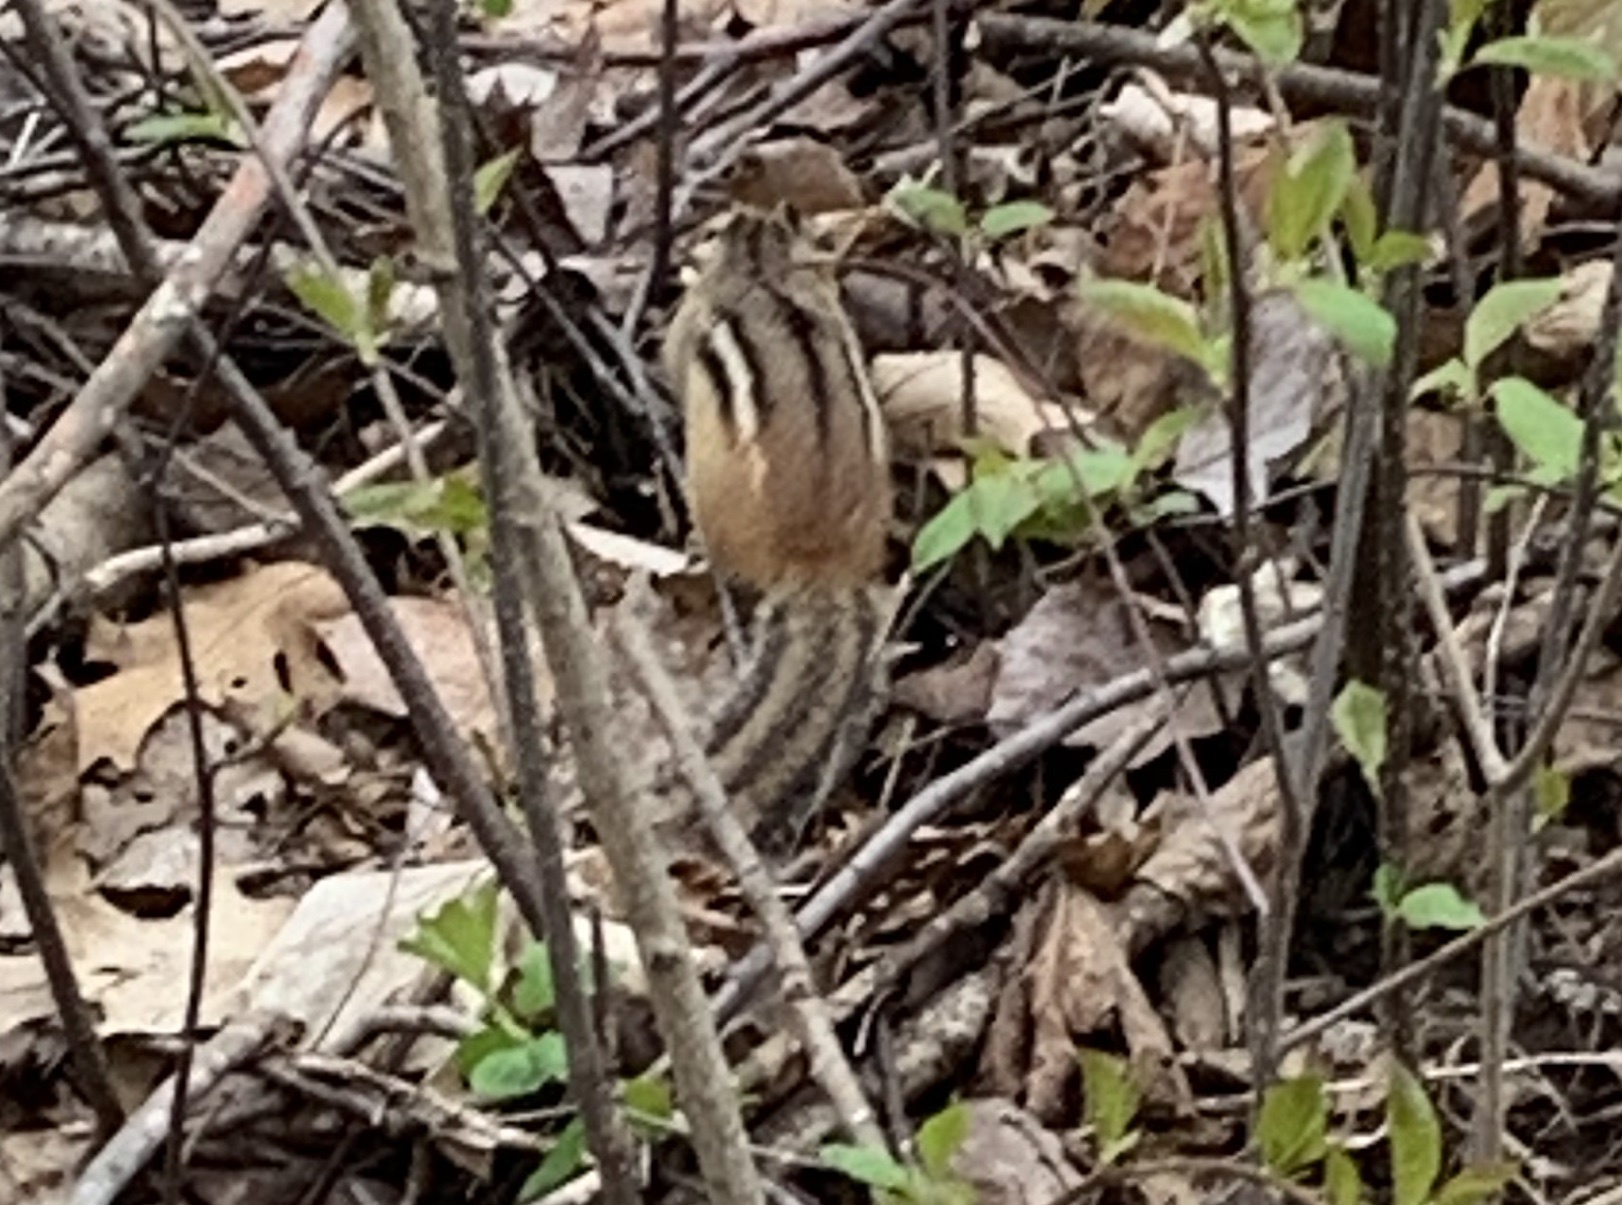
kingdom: Animalia
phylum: Chordata
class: Mammalia
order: Rodentia
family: Sciuridae
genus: Tamias
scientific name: Tamias striatus
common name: Eastern chipmunk
